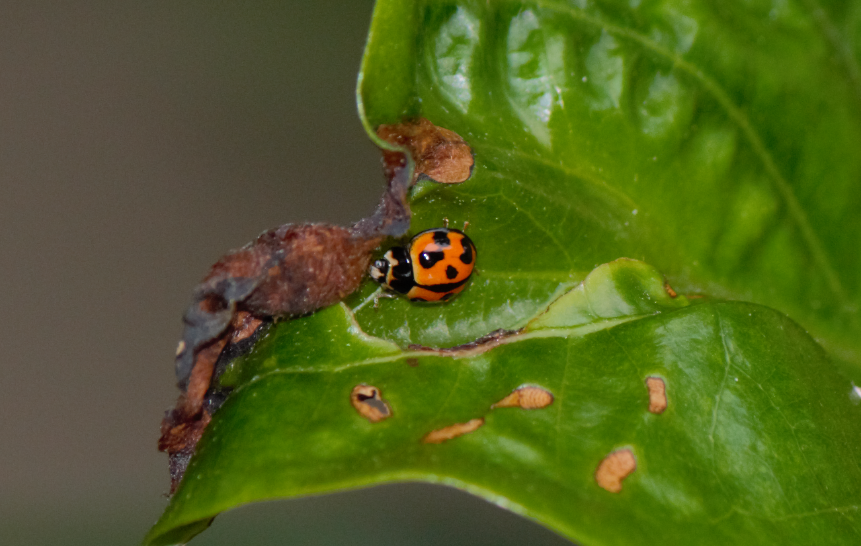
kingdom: Animalia
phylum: Arthropoda
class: Insecta
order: Coleoptera
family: Coccinellidae
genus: Coelophora
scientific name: Coelophora inaequalis
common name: Common australian lady beetle
